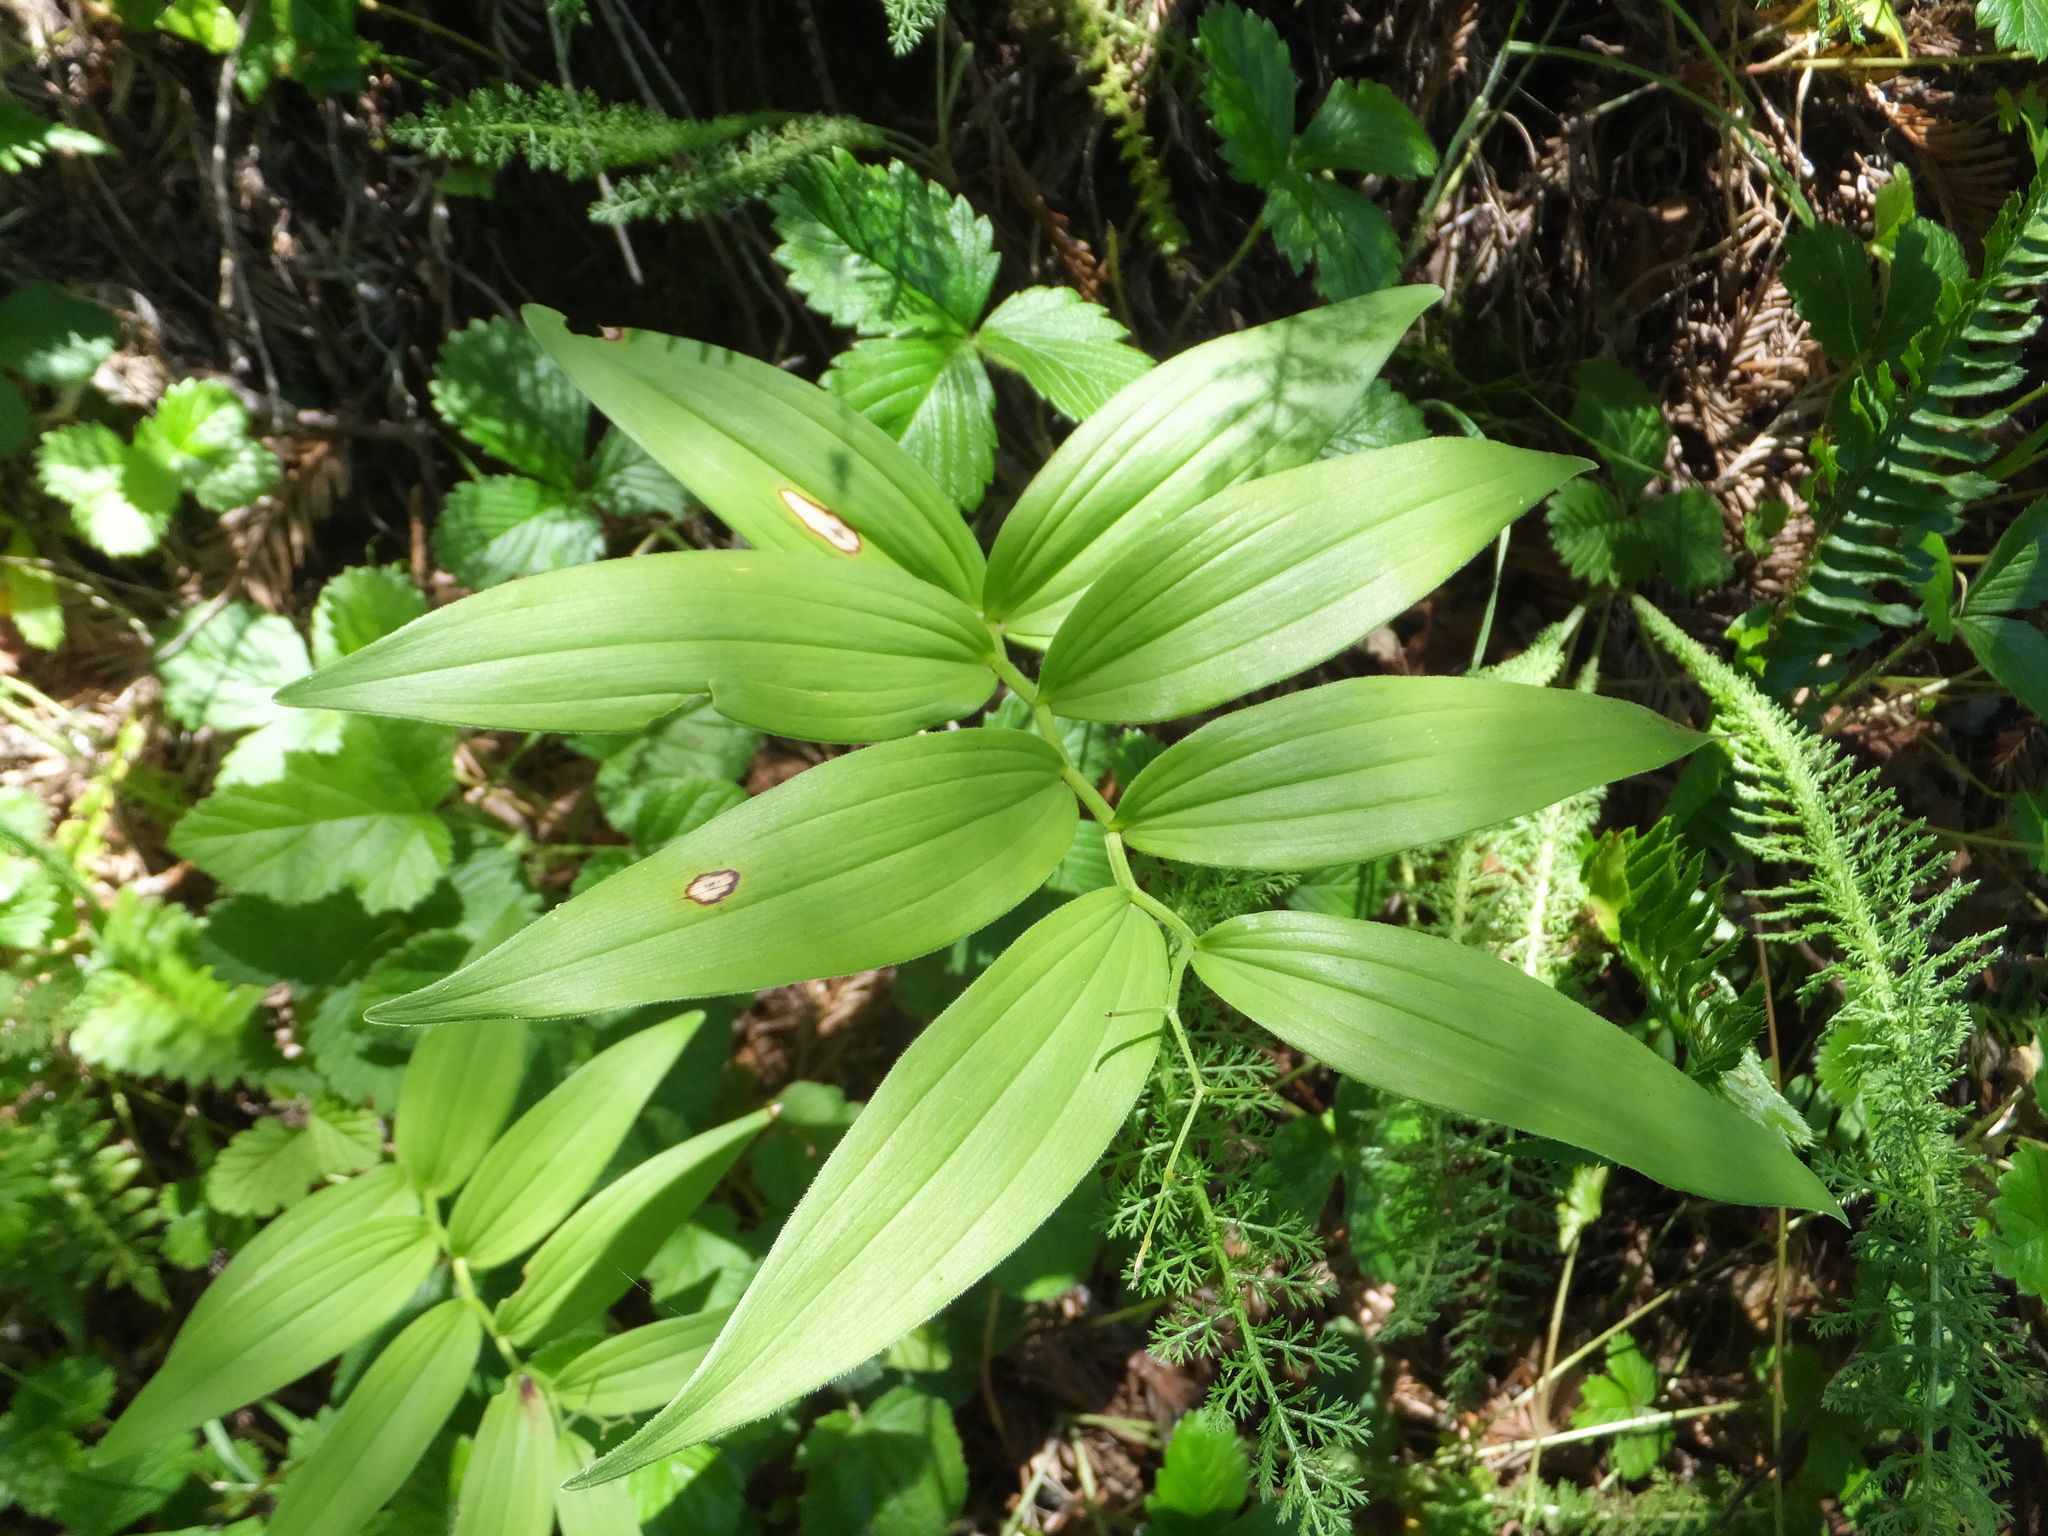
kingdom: Plantae
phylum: Tracheophyta
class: Liliopsida
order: Asparagales
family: Asparagaceae
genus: Maianthemum
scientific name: Maianthemum stellatum
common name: Little false solomon's seal
